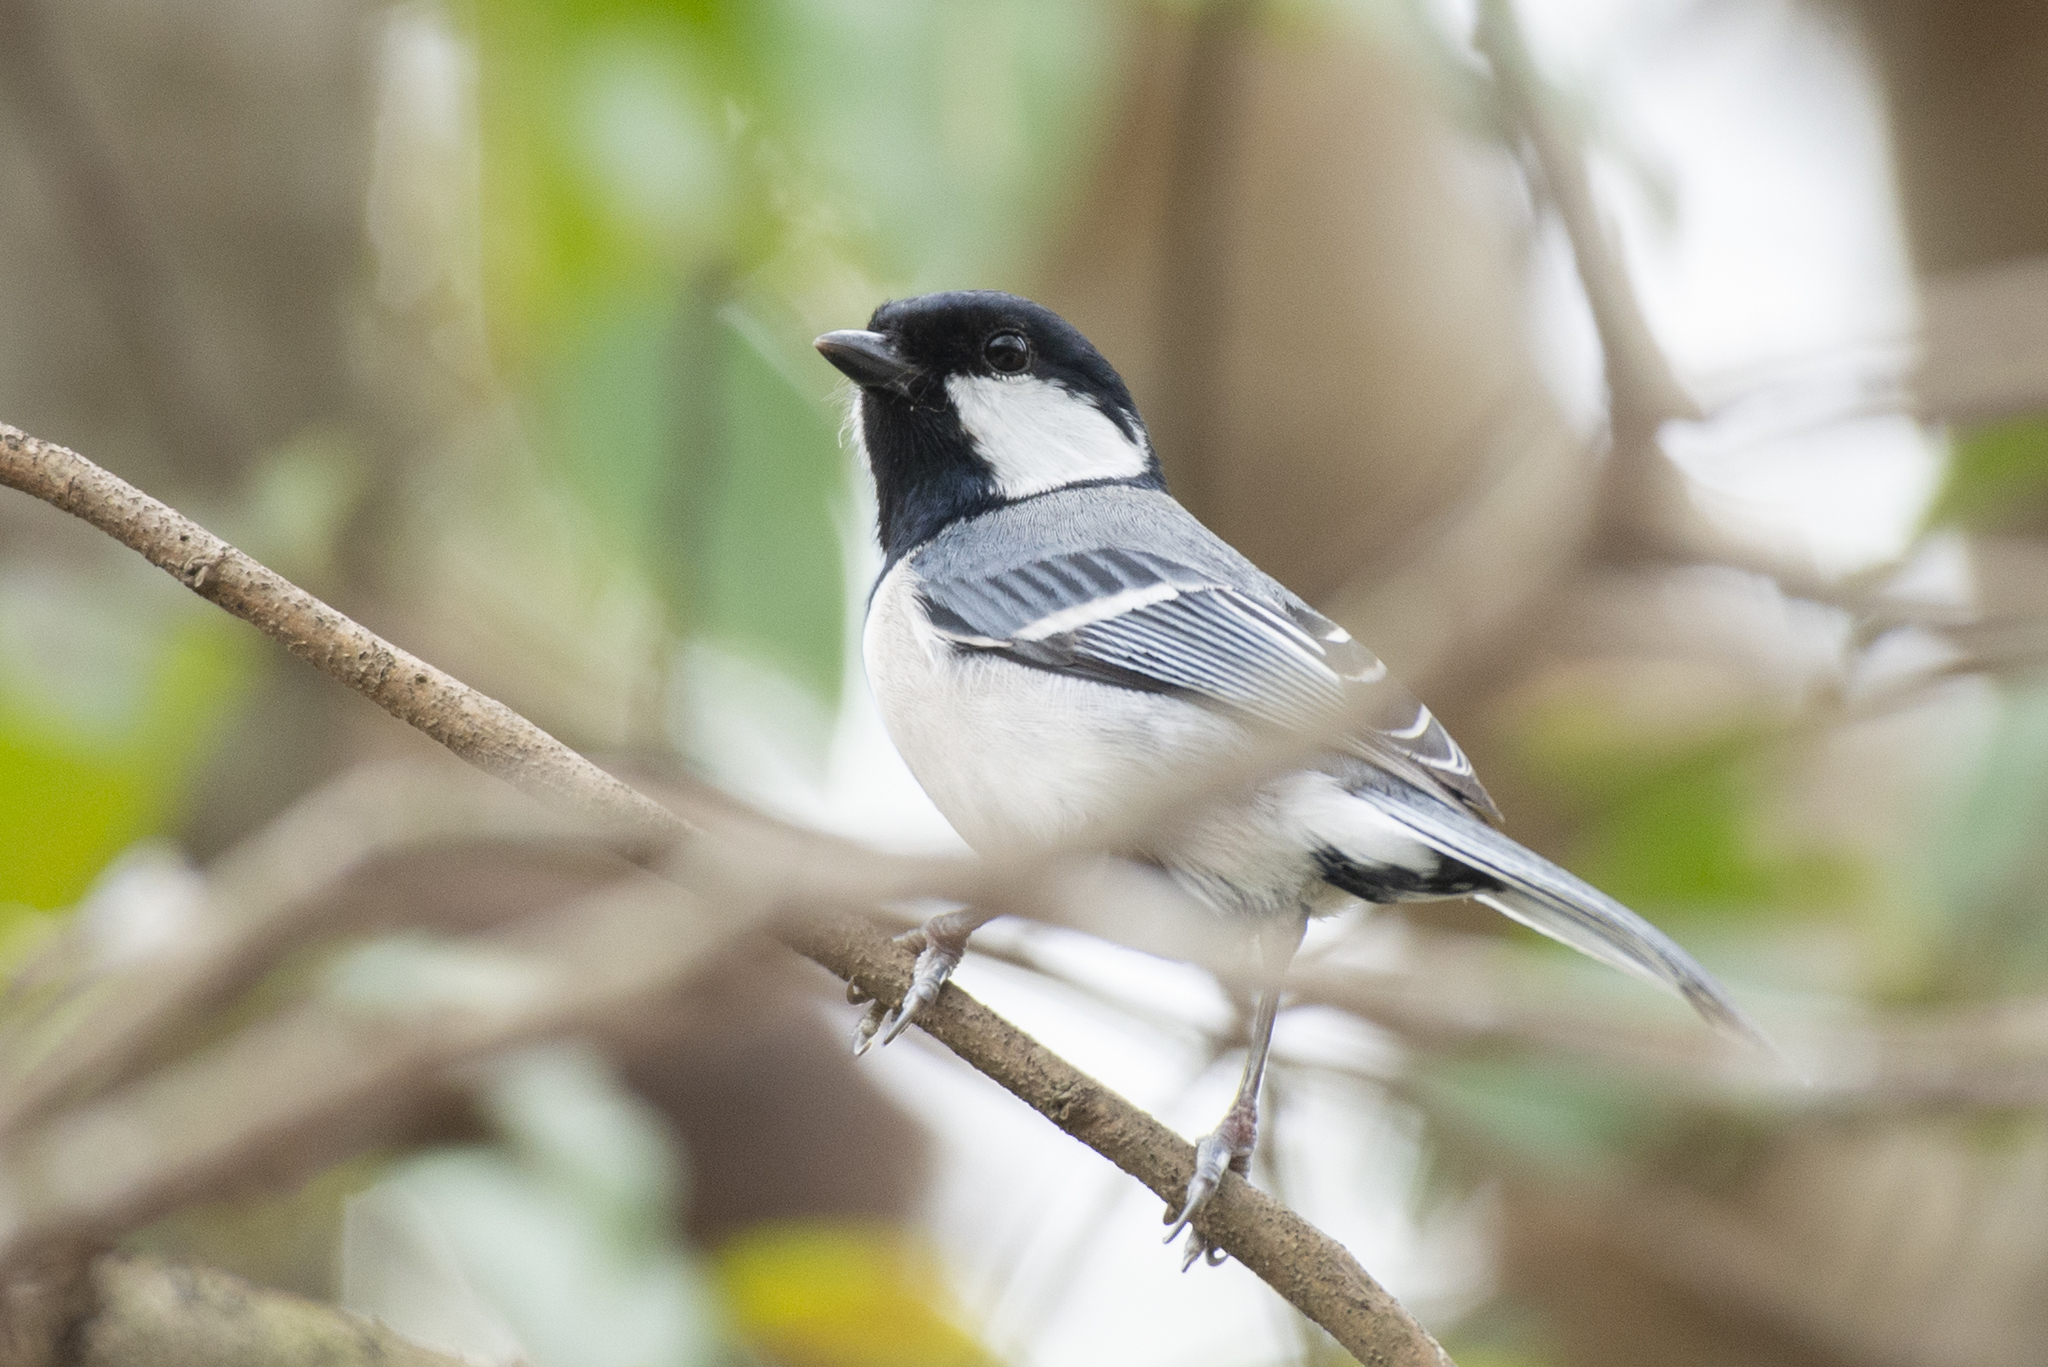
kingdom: Animalia
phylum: Chordata
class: Aves
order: Passeriformes
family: Paridae
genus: Parus
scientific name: Parus minor
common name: Japanese tit
